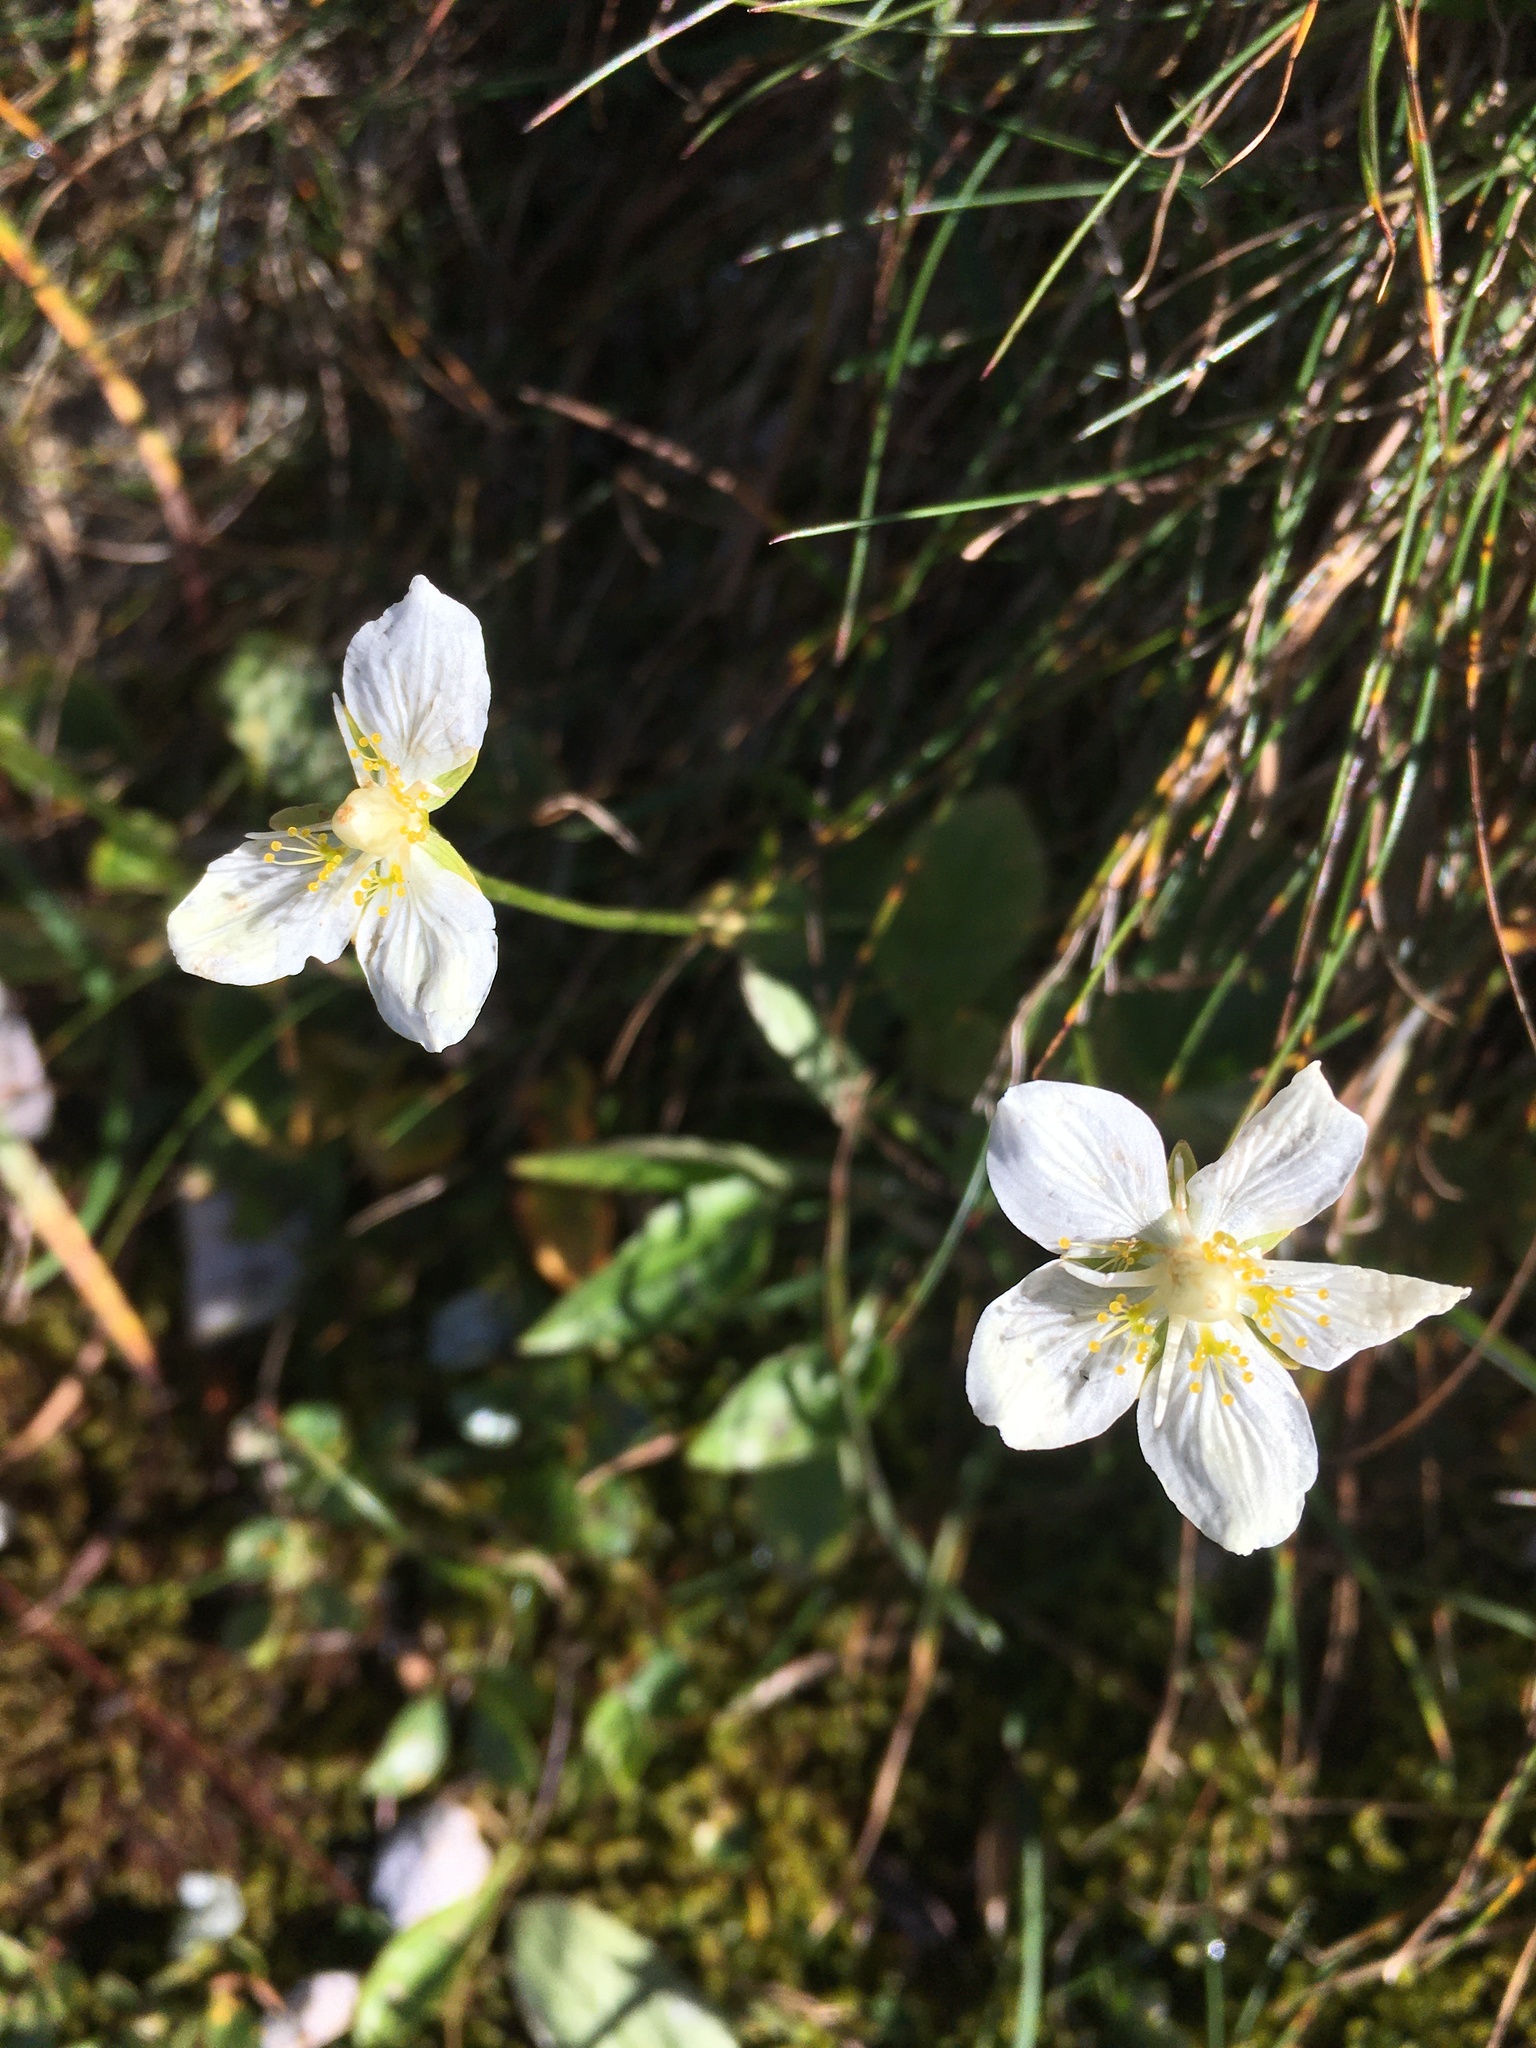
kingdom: Plantae
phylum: Tracheophyta
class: Magnoliopsida
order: Celastrales
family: Parnassiaceae
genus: Parnassia
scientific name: Parnassia palustris
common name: Grass-of-parnassus
